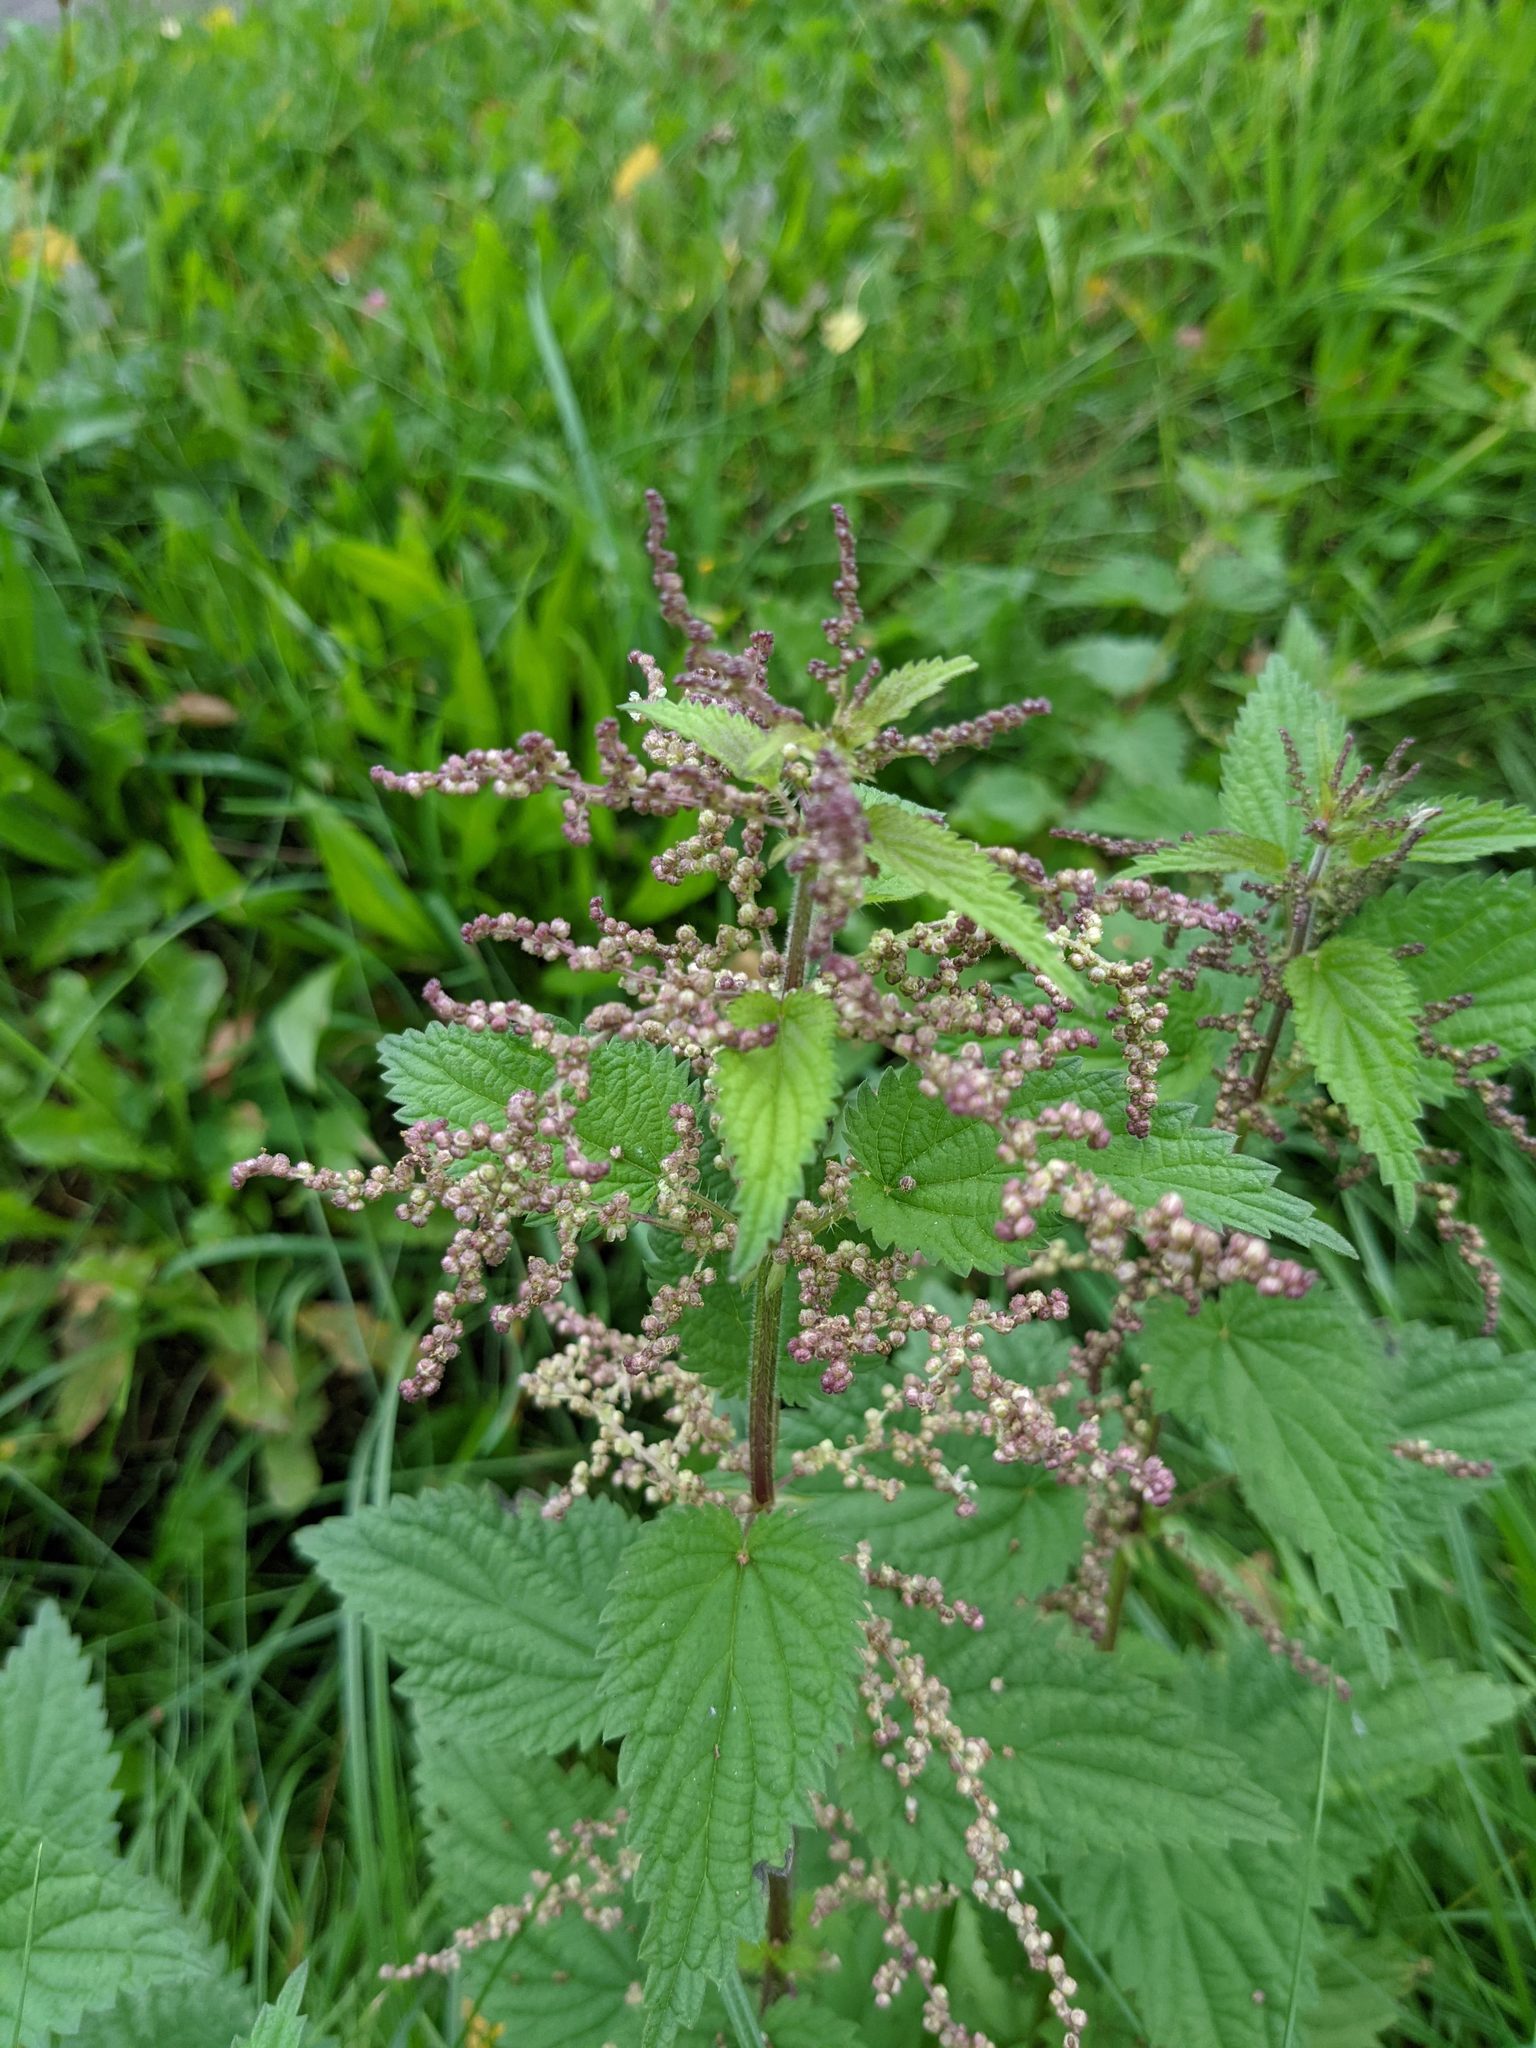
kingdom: Plantae
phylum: Tracheophyta
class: Magnoliopsida
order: Rosales
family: Urticaceae
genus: Urtica
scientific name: Urtica dioica
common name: Common nettle
